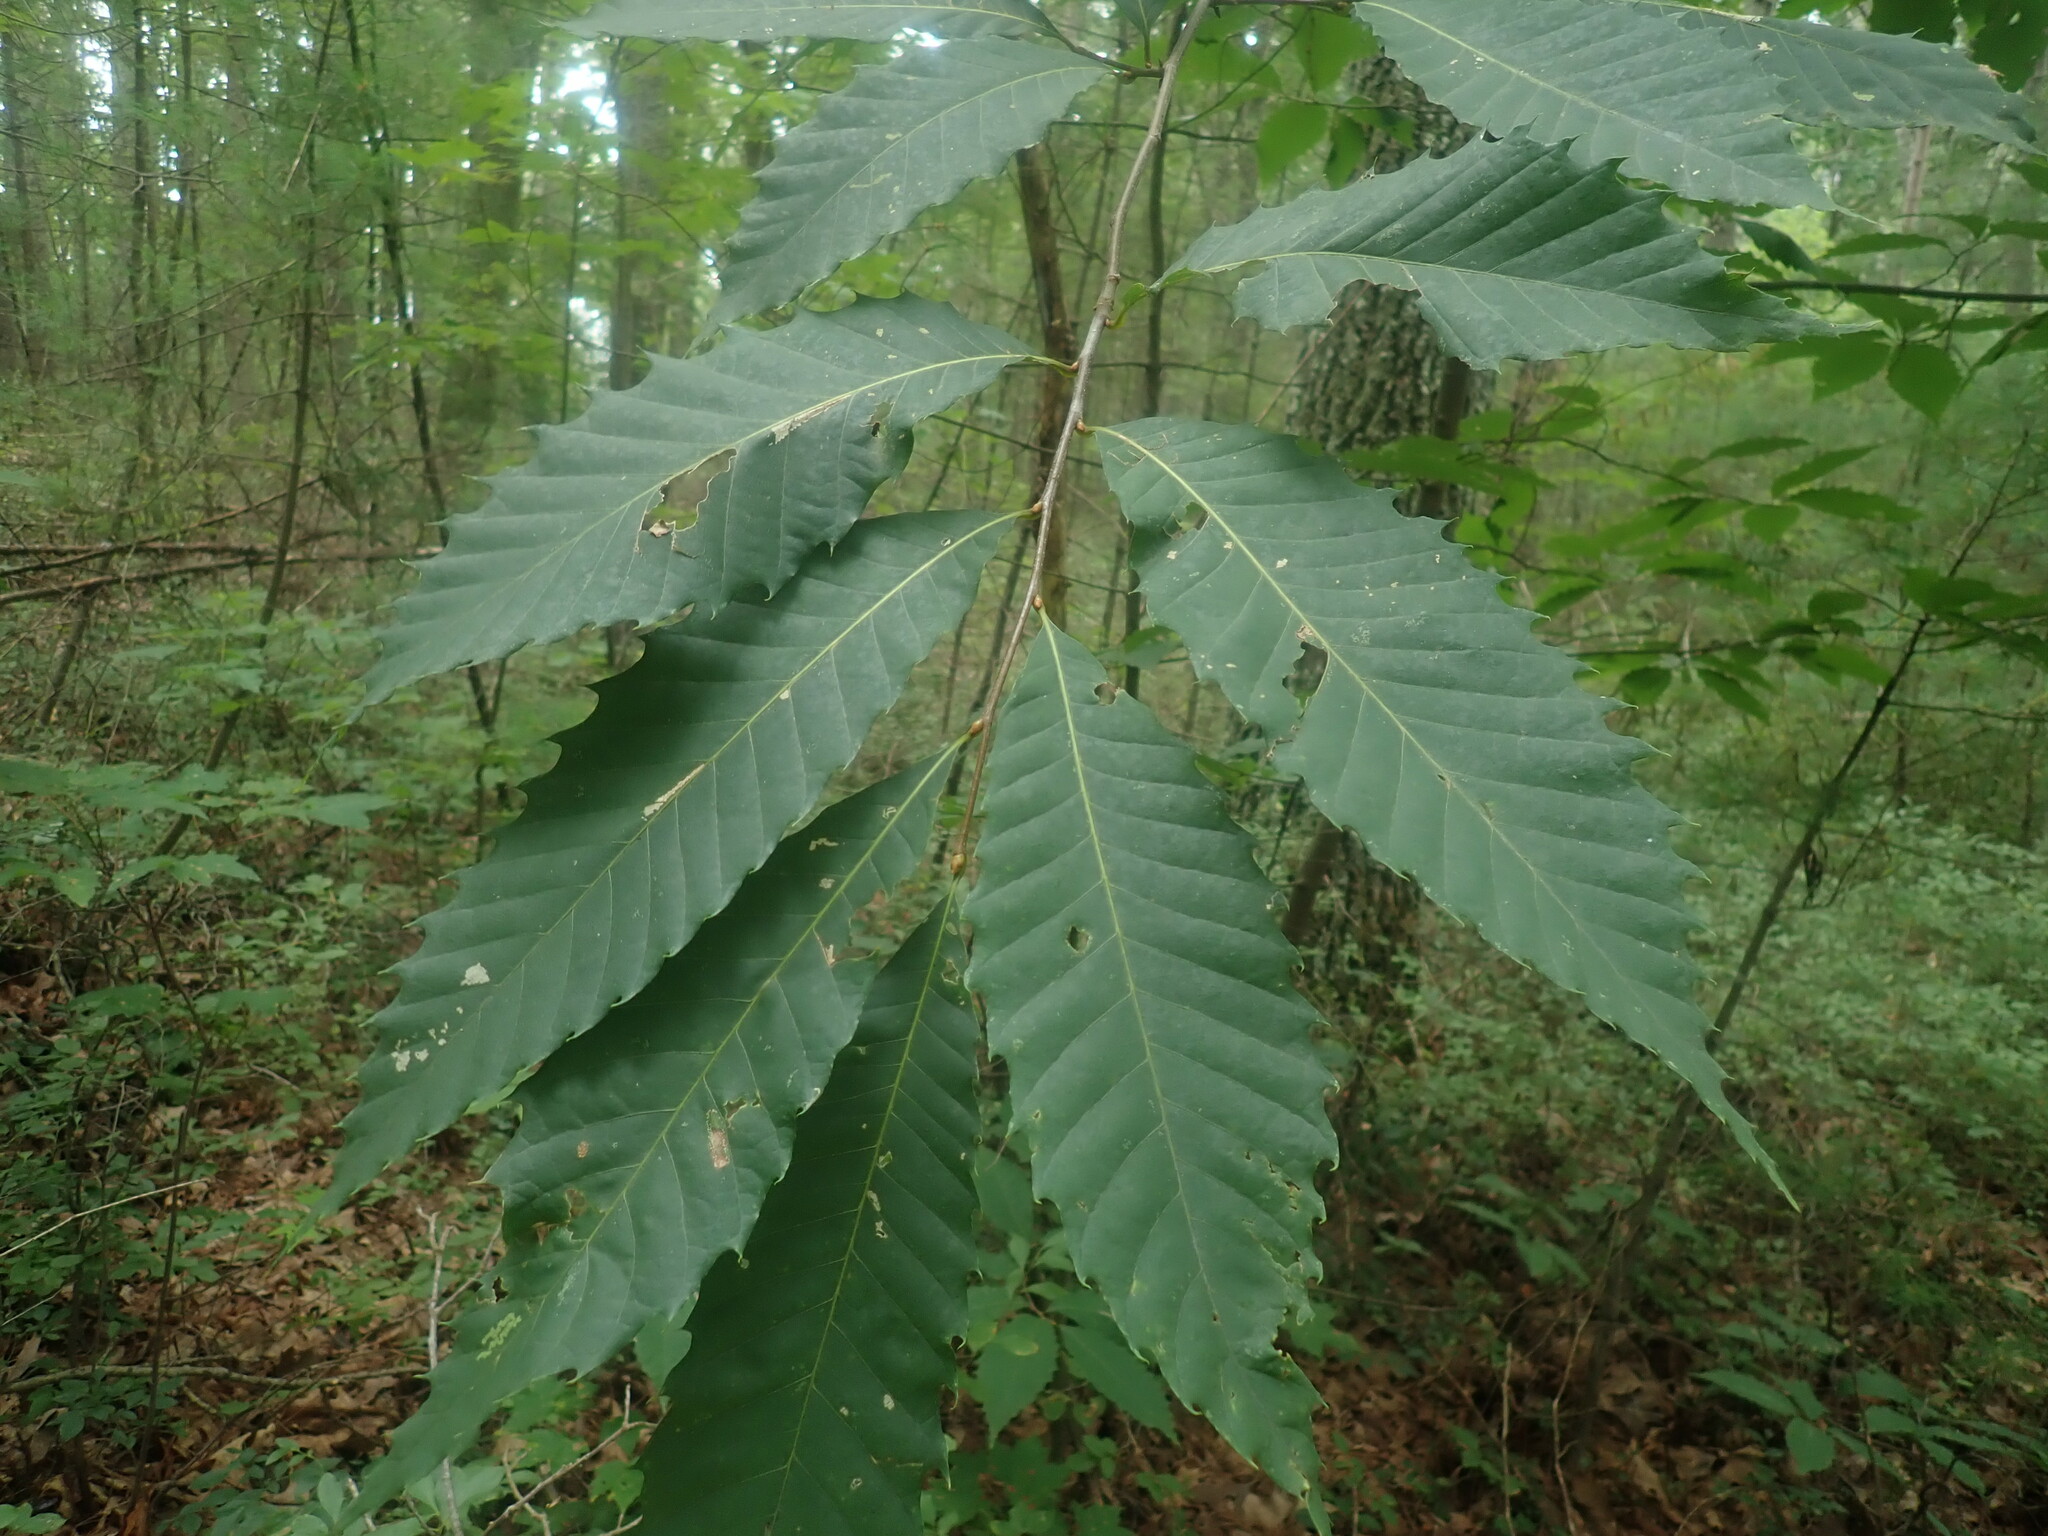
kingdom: Plantae
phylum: Tracheophyta
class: Magnoliopsida
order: Fagales
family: Fagaceae
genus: Castanea
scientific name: Castanea dentata
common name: American chestnut
